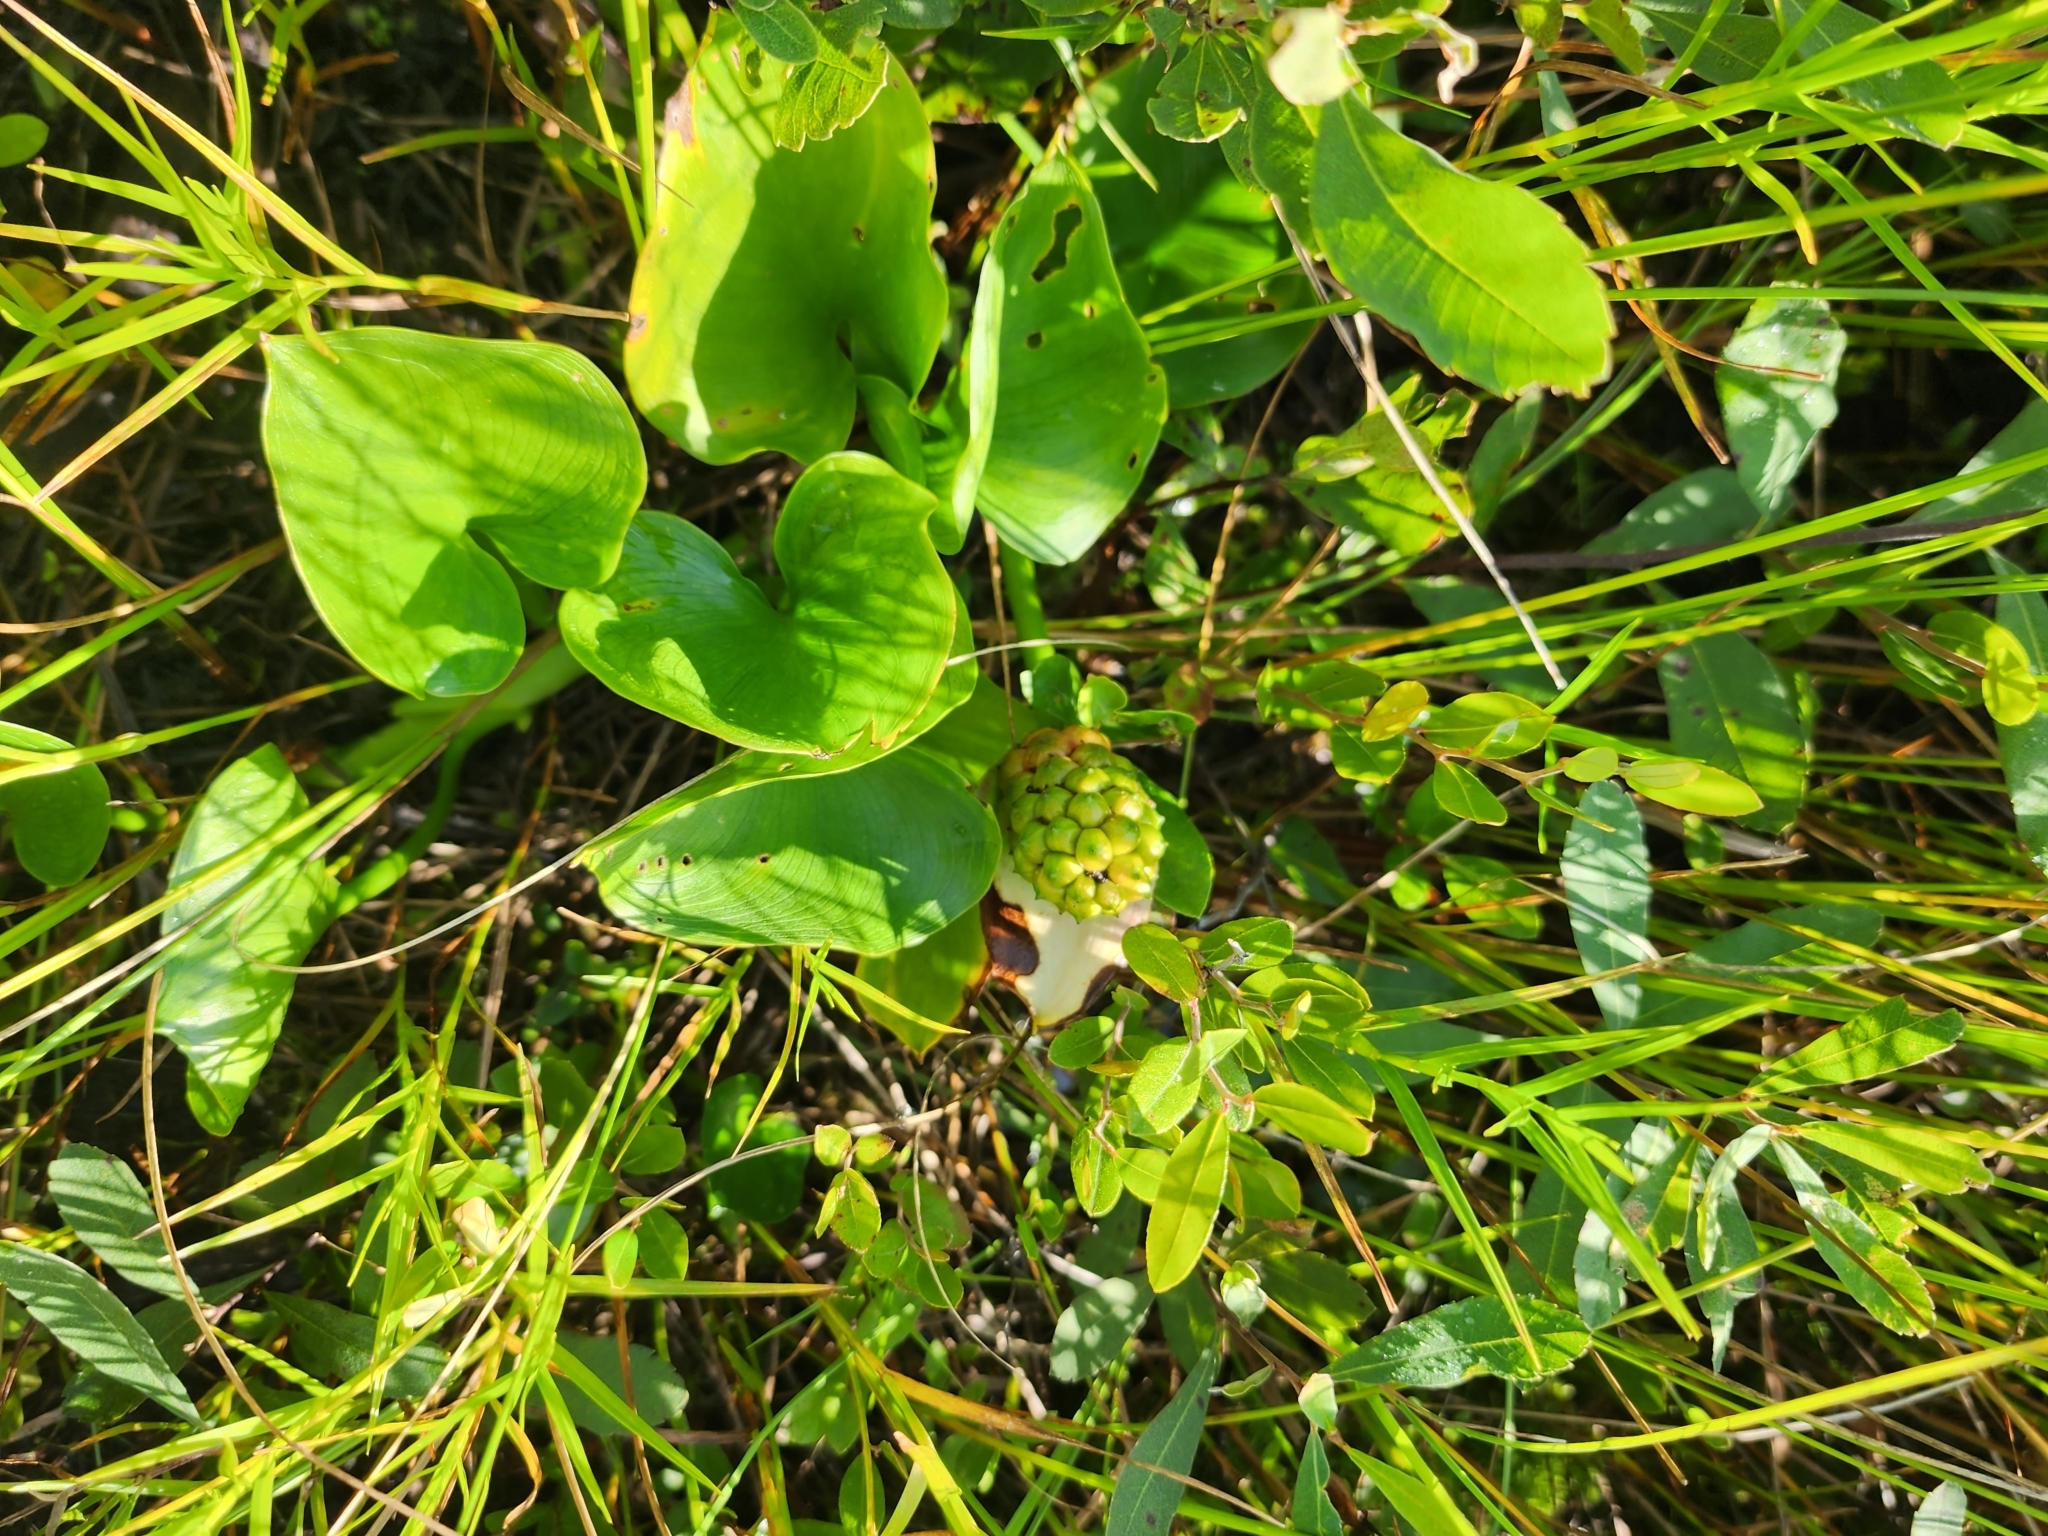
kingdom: Plantae
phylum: Tracheophyta
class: Liliopsida
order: Alismatales
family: Araceae
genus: Calla
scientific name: Calla palustris
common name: Bog arum
